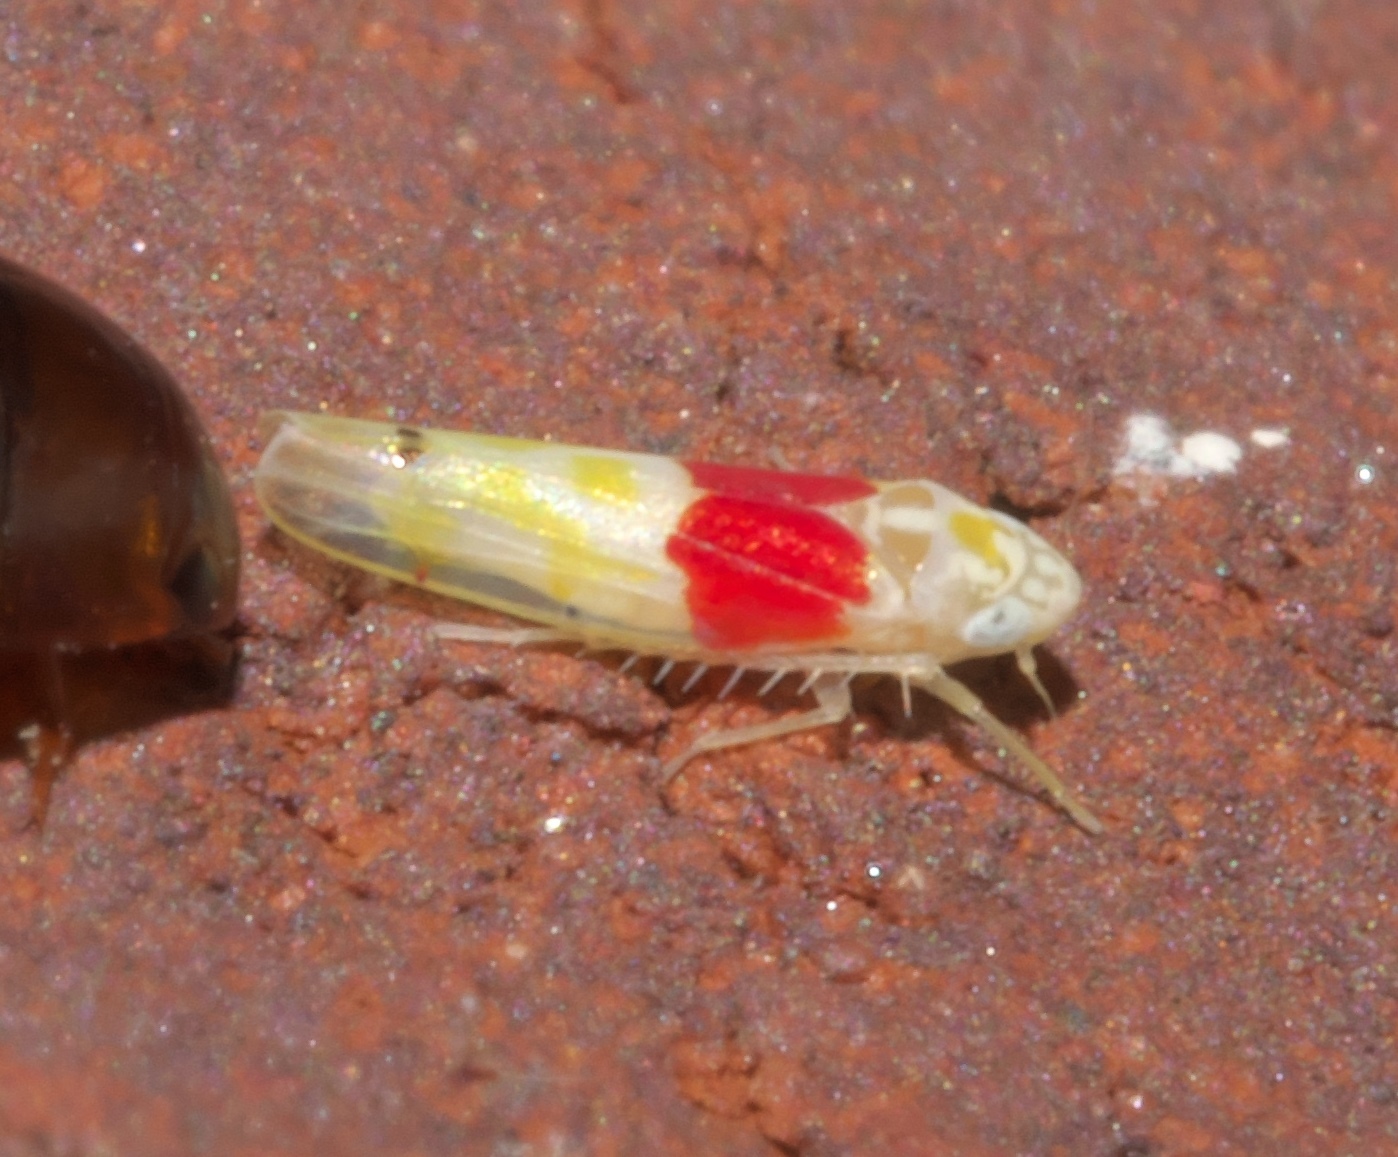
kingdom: Animalia
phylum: Arthropoda
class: Insecta
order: Hemiptera
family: Cicadellidae
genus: Eratoneura
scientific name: Eratoneura osborni
